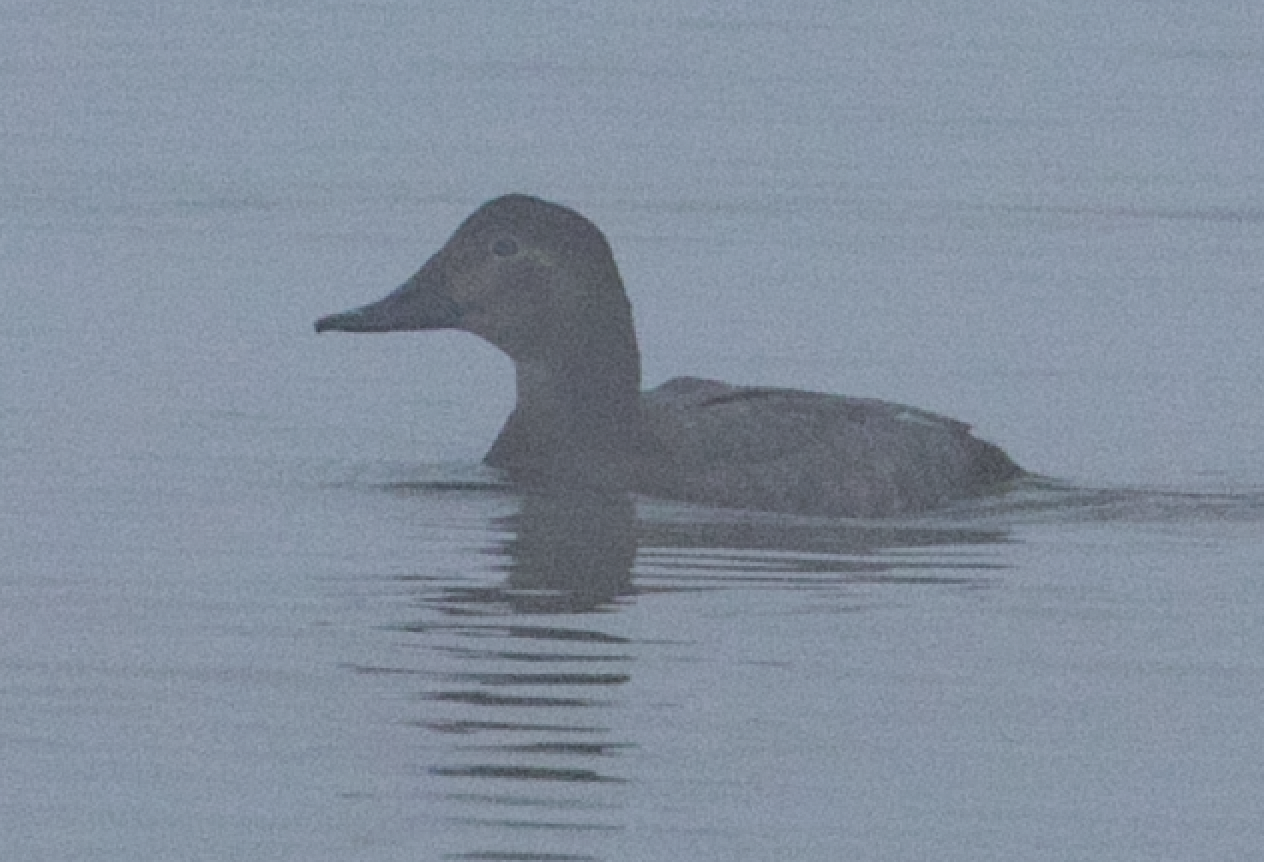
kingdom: Animalia
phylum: Chordata
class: Aves
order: Anseriformes
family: Anatidae
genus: Aythya
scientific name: Aythya ferina
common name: Common pochard
